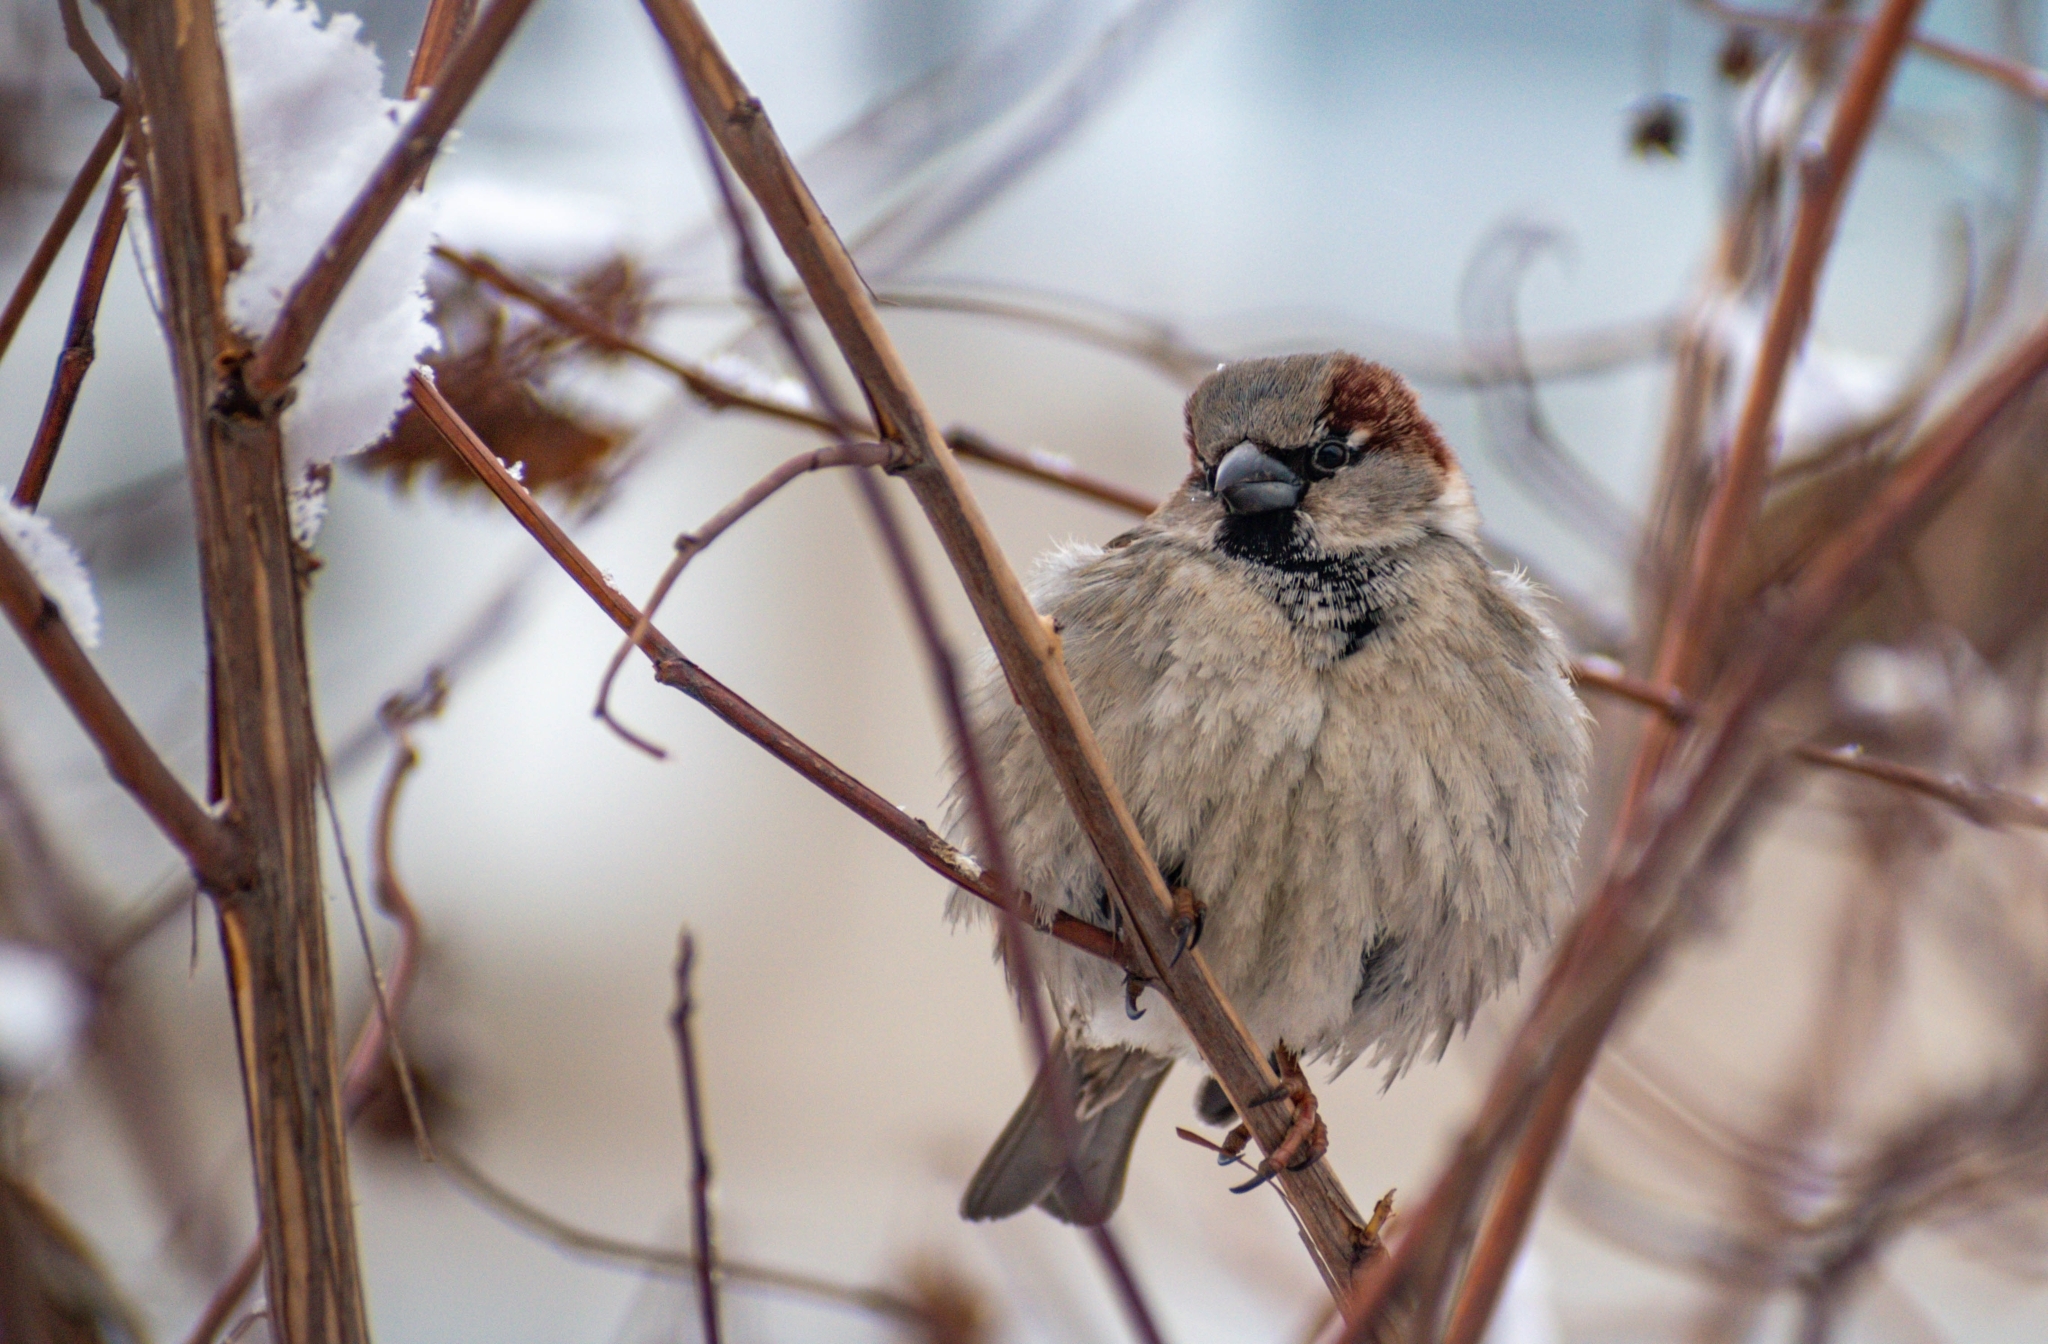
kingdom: Animalia
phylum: Chordata
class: Aves
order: Passeriformes
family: Passeridae
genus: Passer
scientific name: Passer domesticus
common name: House sparrow
